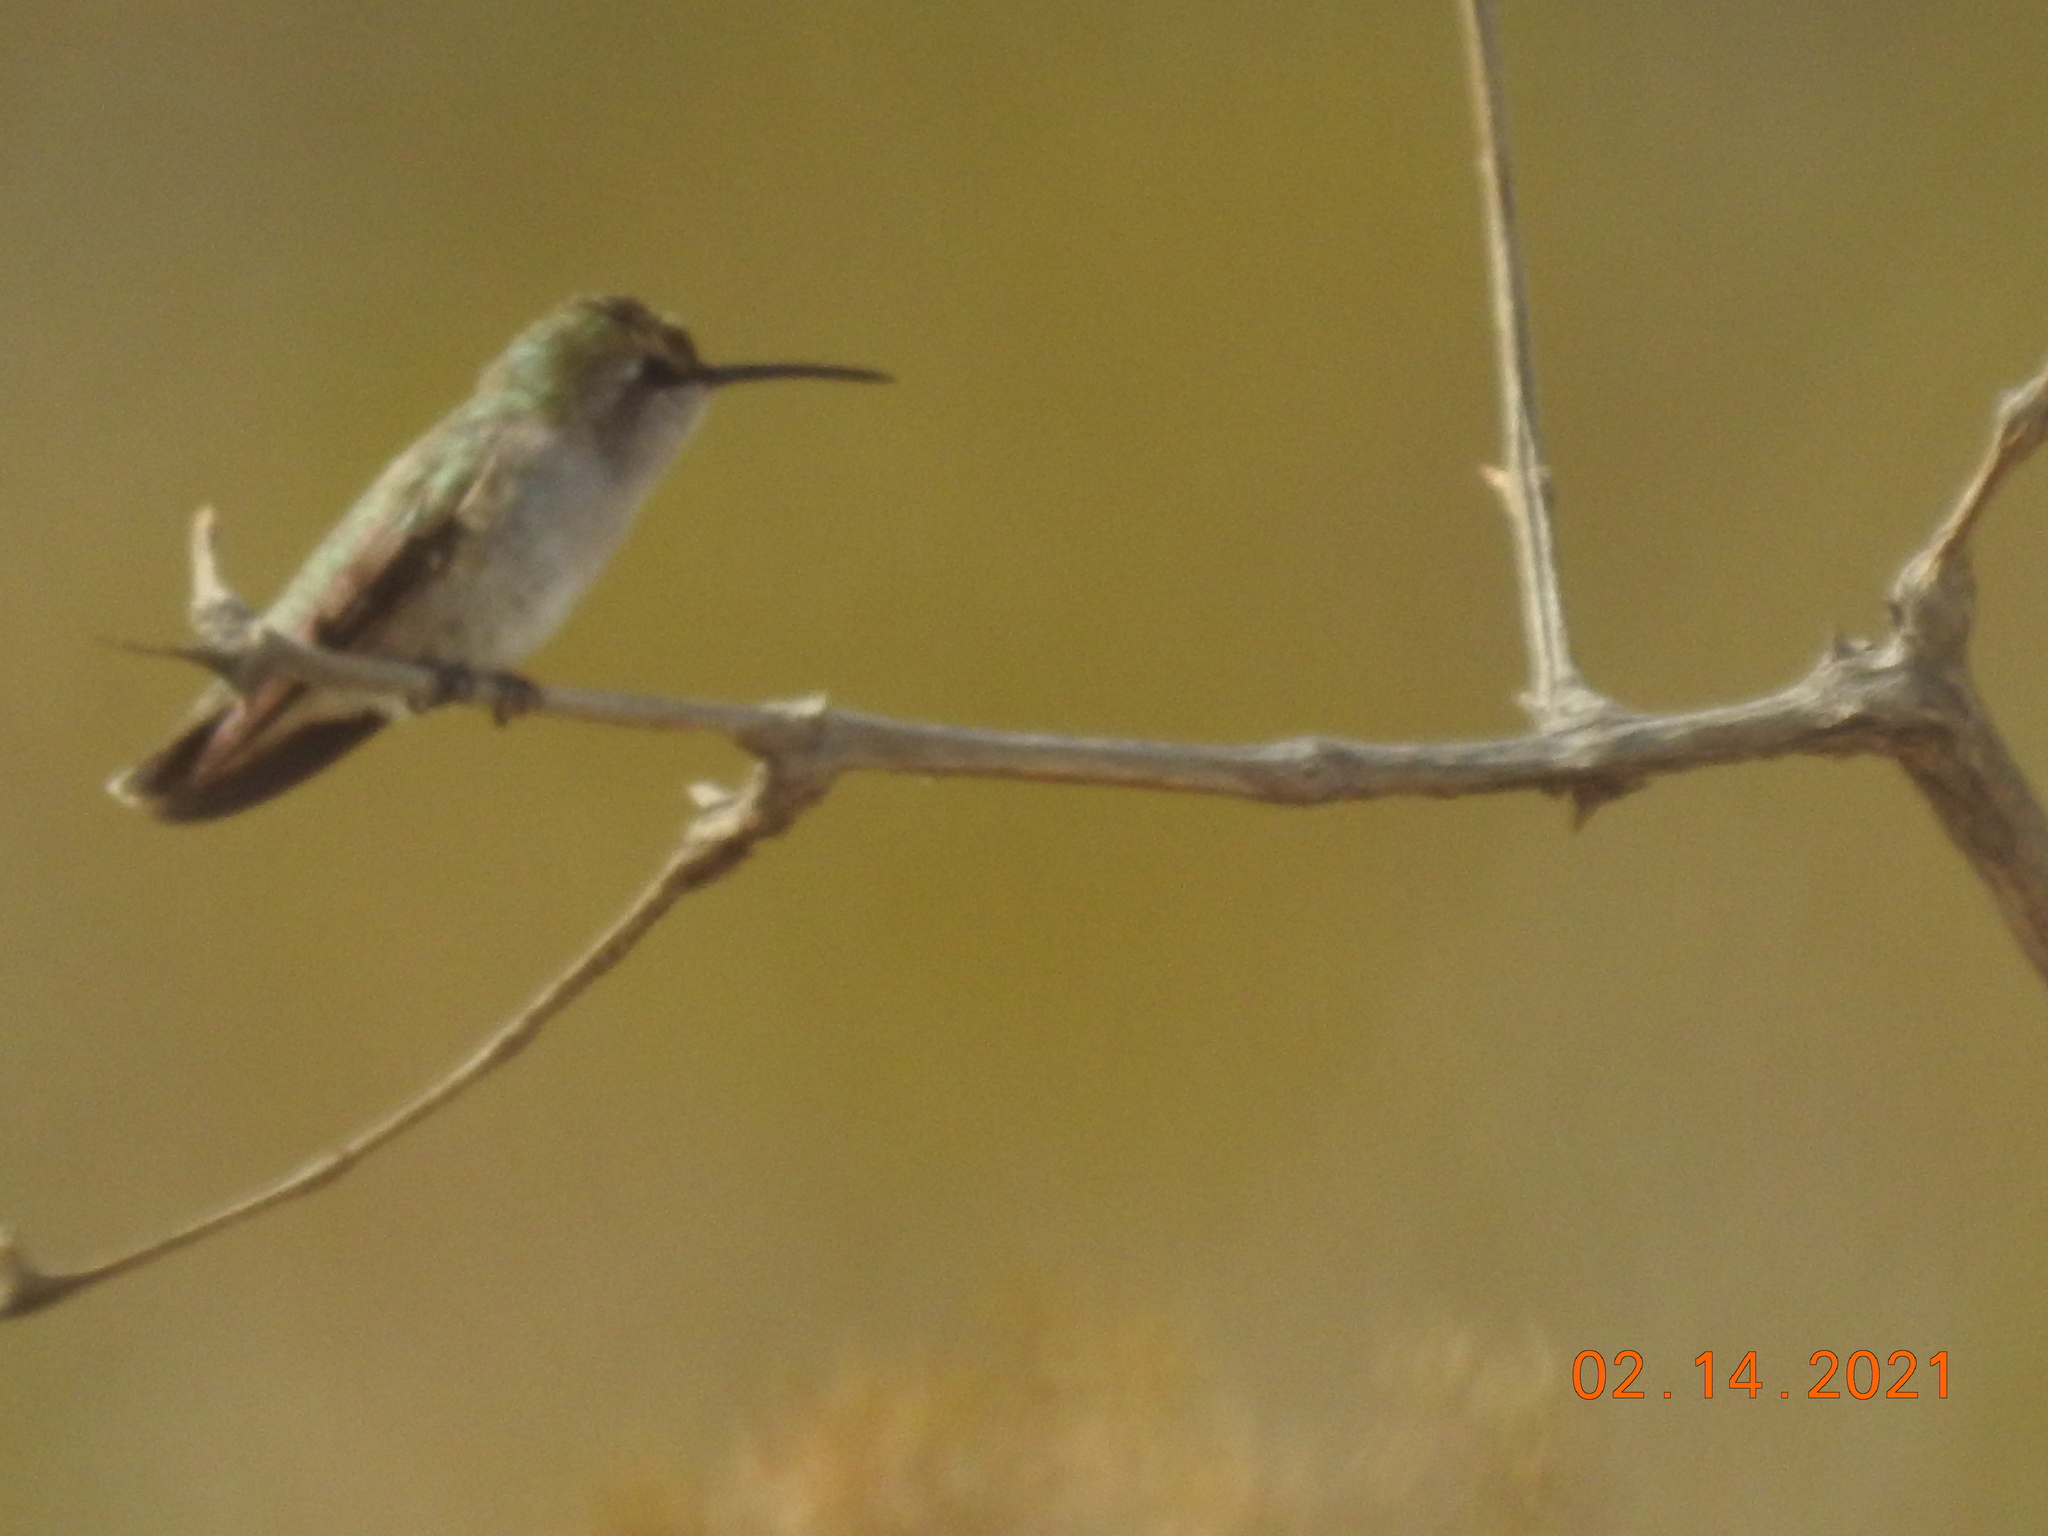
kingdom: Animalia
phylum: Chordata
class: Aves
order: Apodiformes
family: Trochilidae
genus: Calypte
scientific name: Calypte costae
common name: Costa's hummingbird
